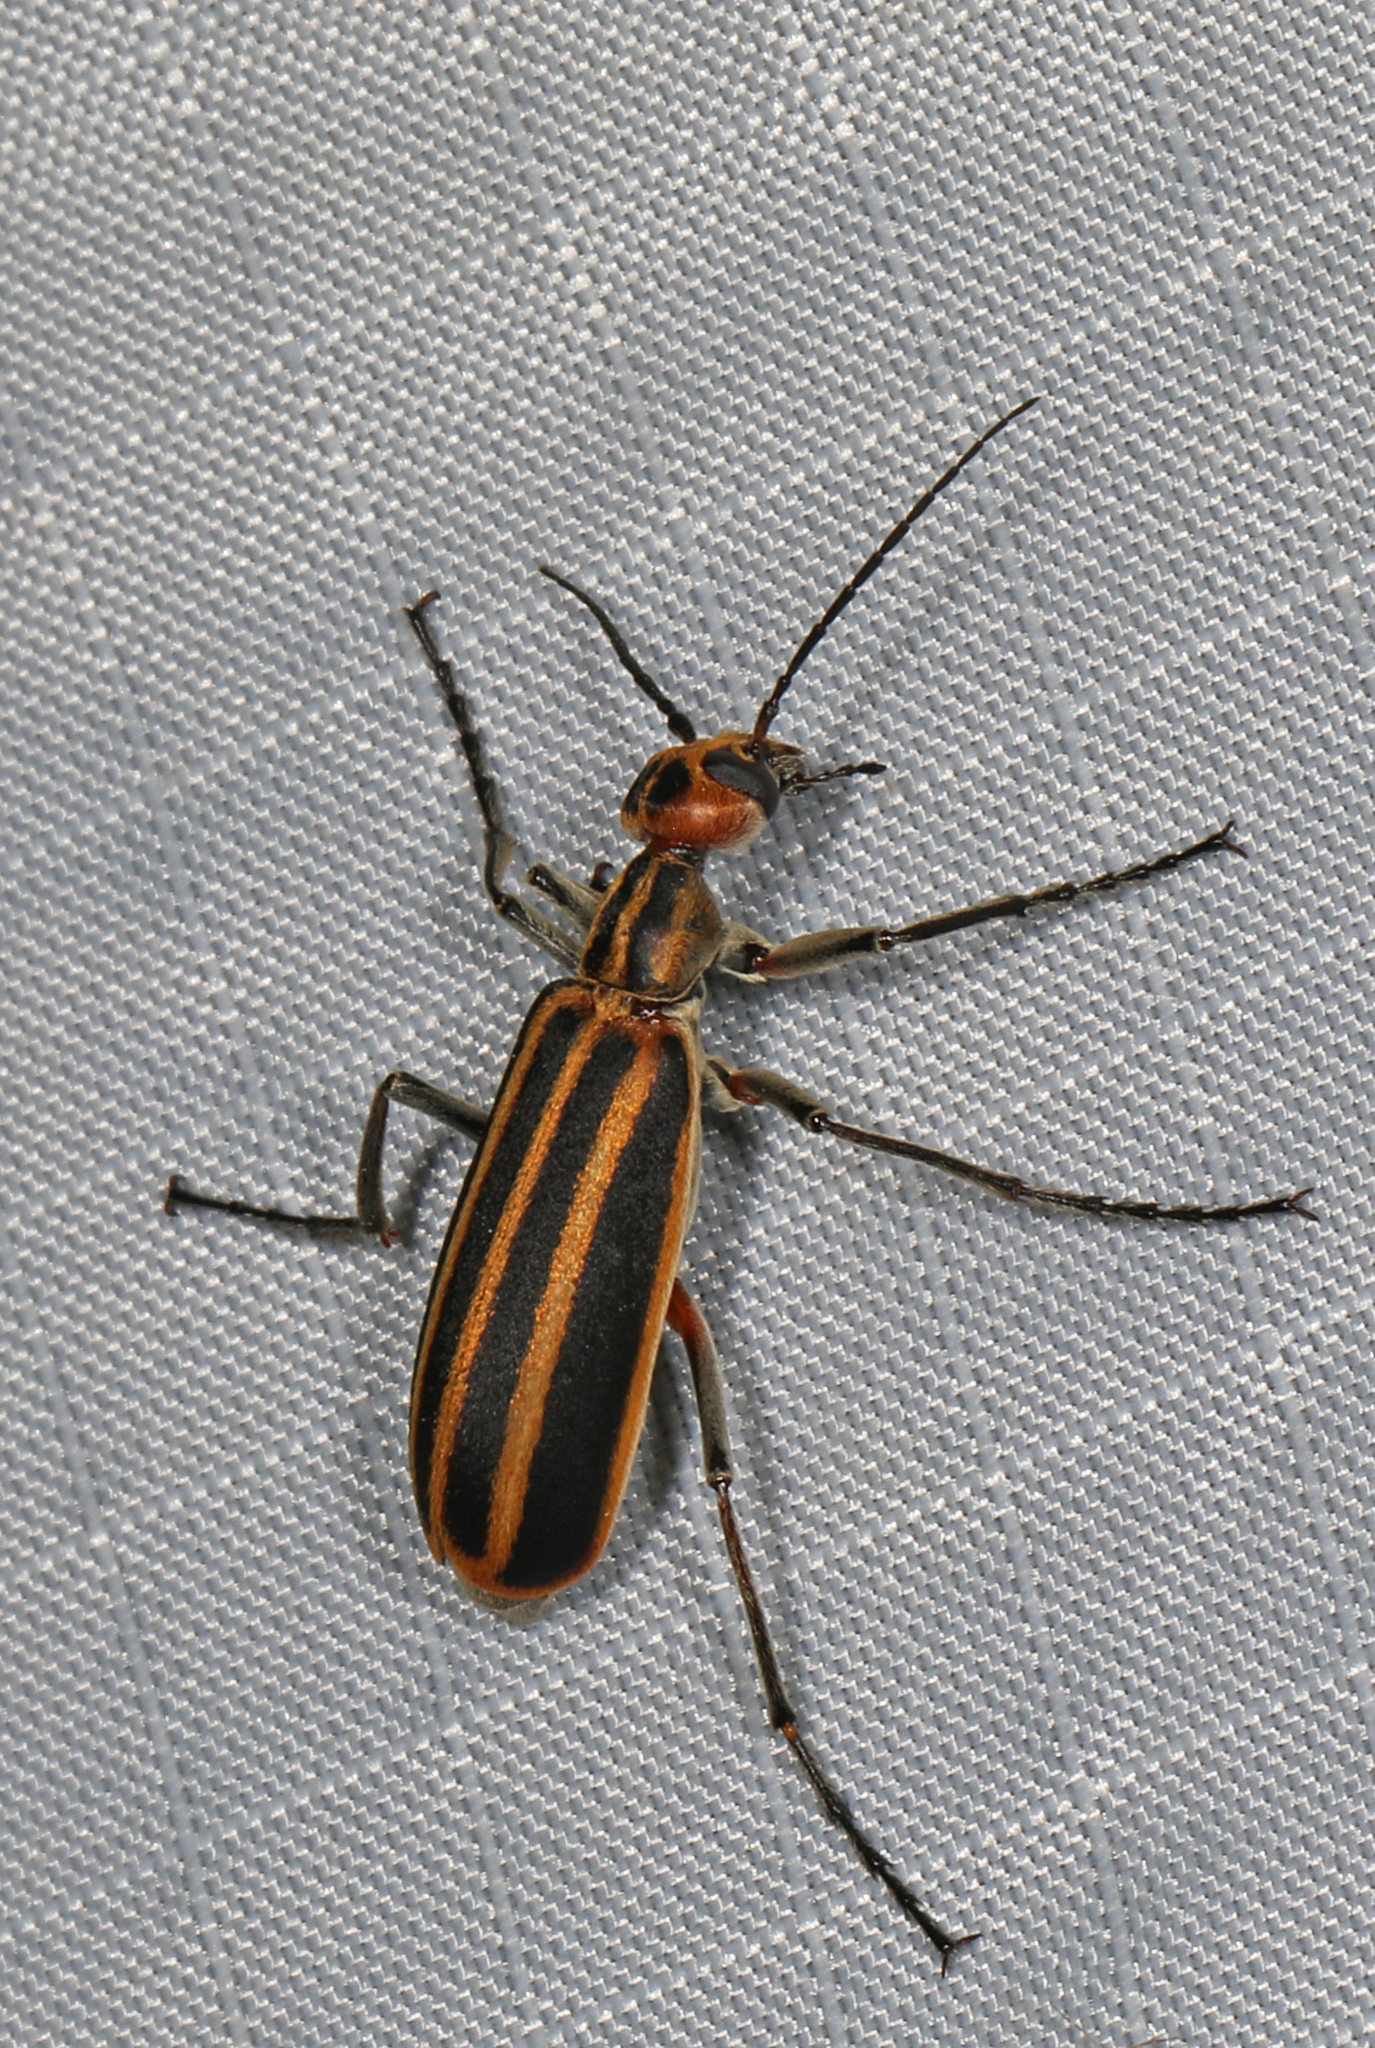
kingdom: Animalia
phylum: Arthropoda
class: Insecta
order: Coleoptera
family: Meloidae
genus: Epicauta
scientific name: Epicauta vittata
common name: Old-fashioned potato beetle
